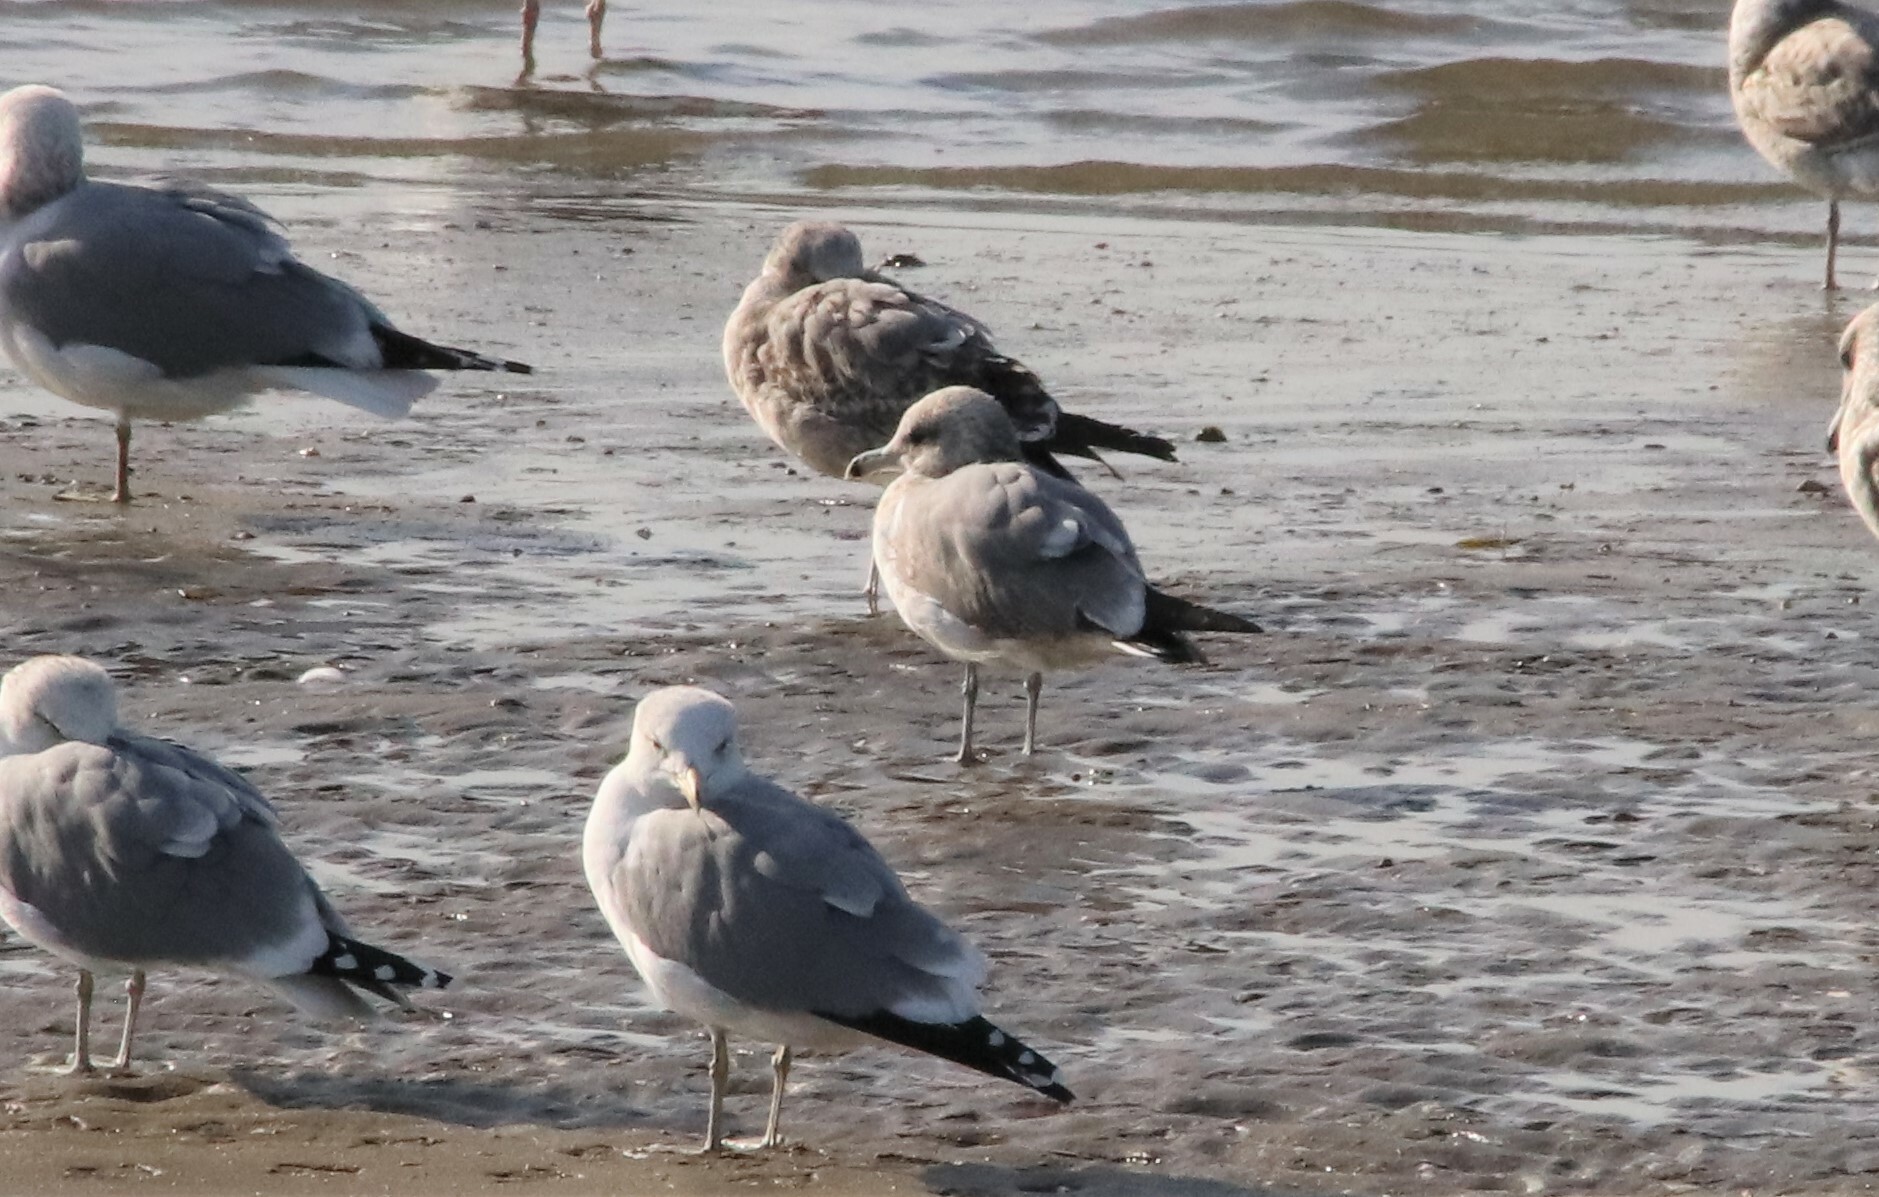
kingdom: Animalia
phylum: Chordata
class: Aves
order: Charadriiformes
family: Laridae
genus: Larus
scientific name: Larus californicus
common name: California gull
